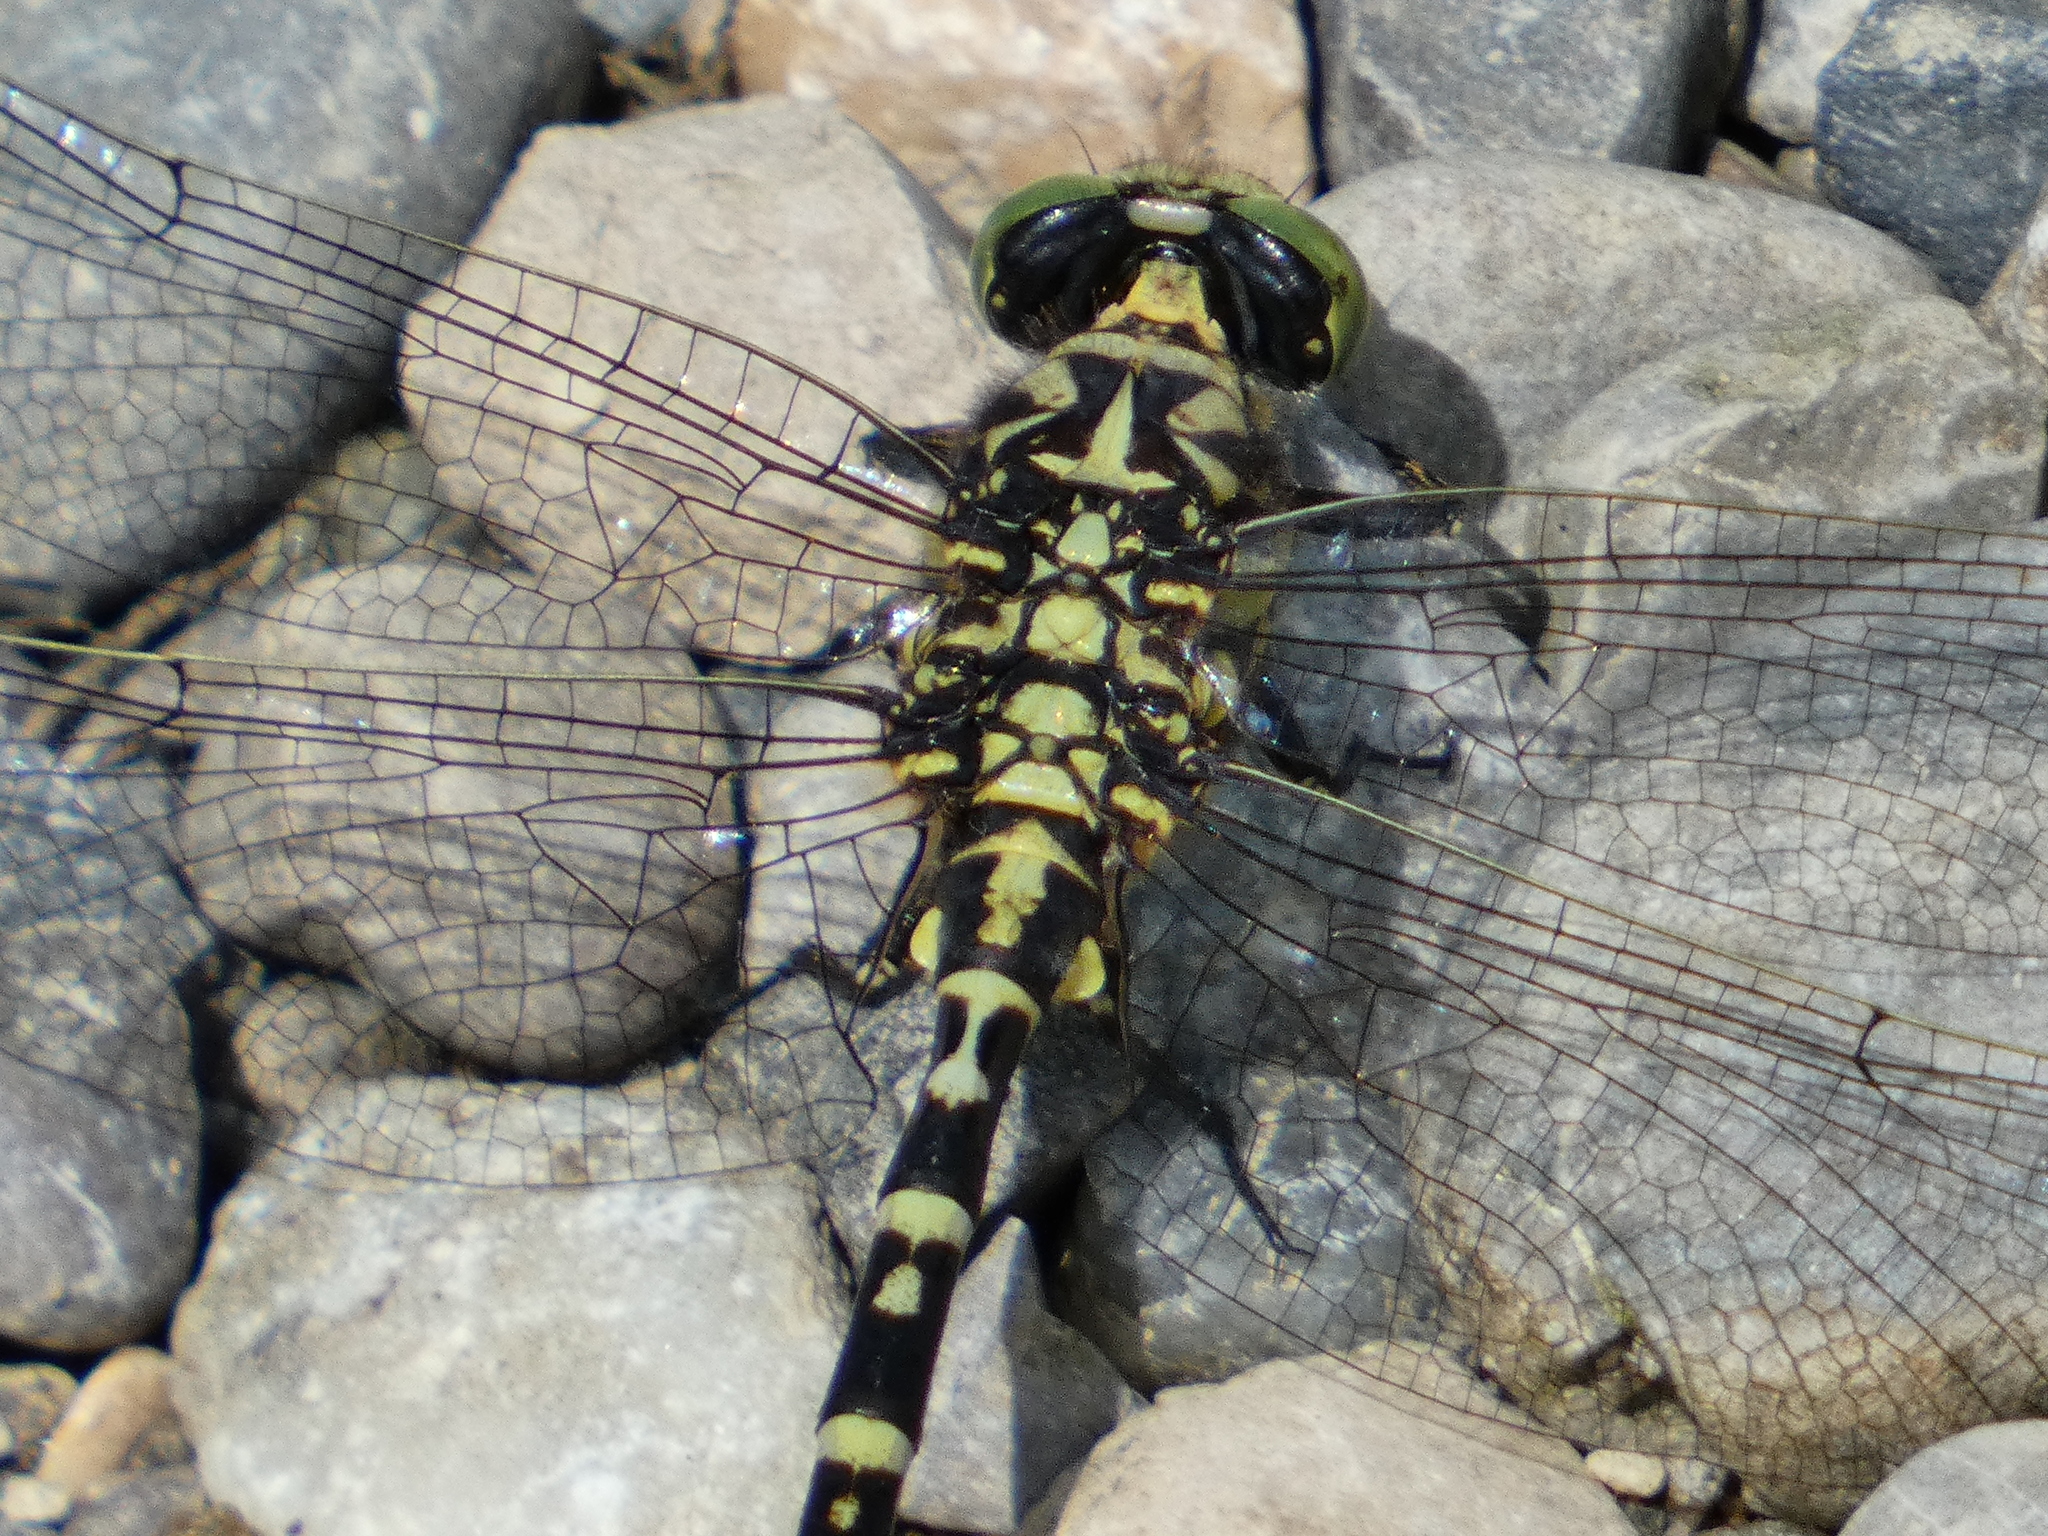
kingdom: Animalia
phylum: Arthropoda
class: Insecta
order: Odonata
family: Gomphidae
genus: Onychogomphus
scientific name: Onychogomphus forcipatus
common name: Small pincertail
